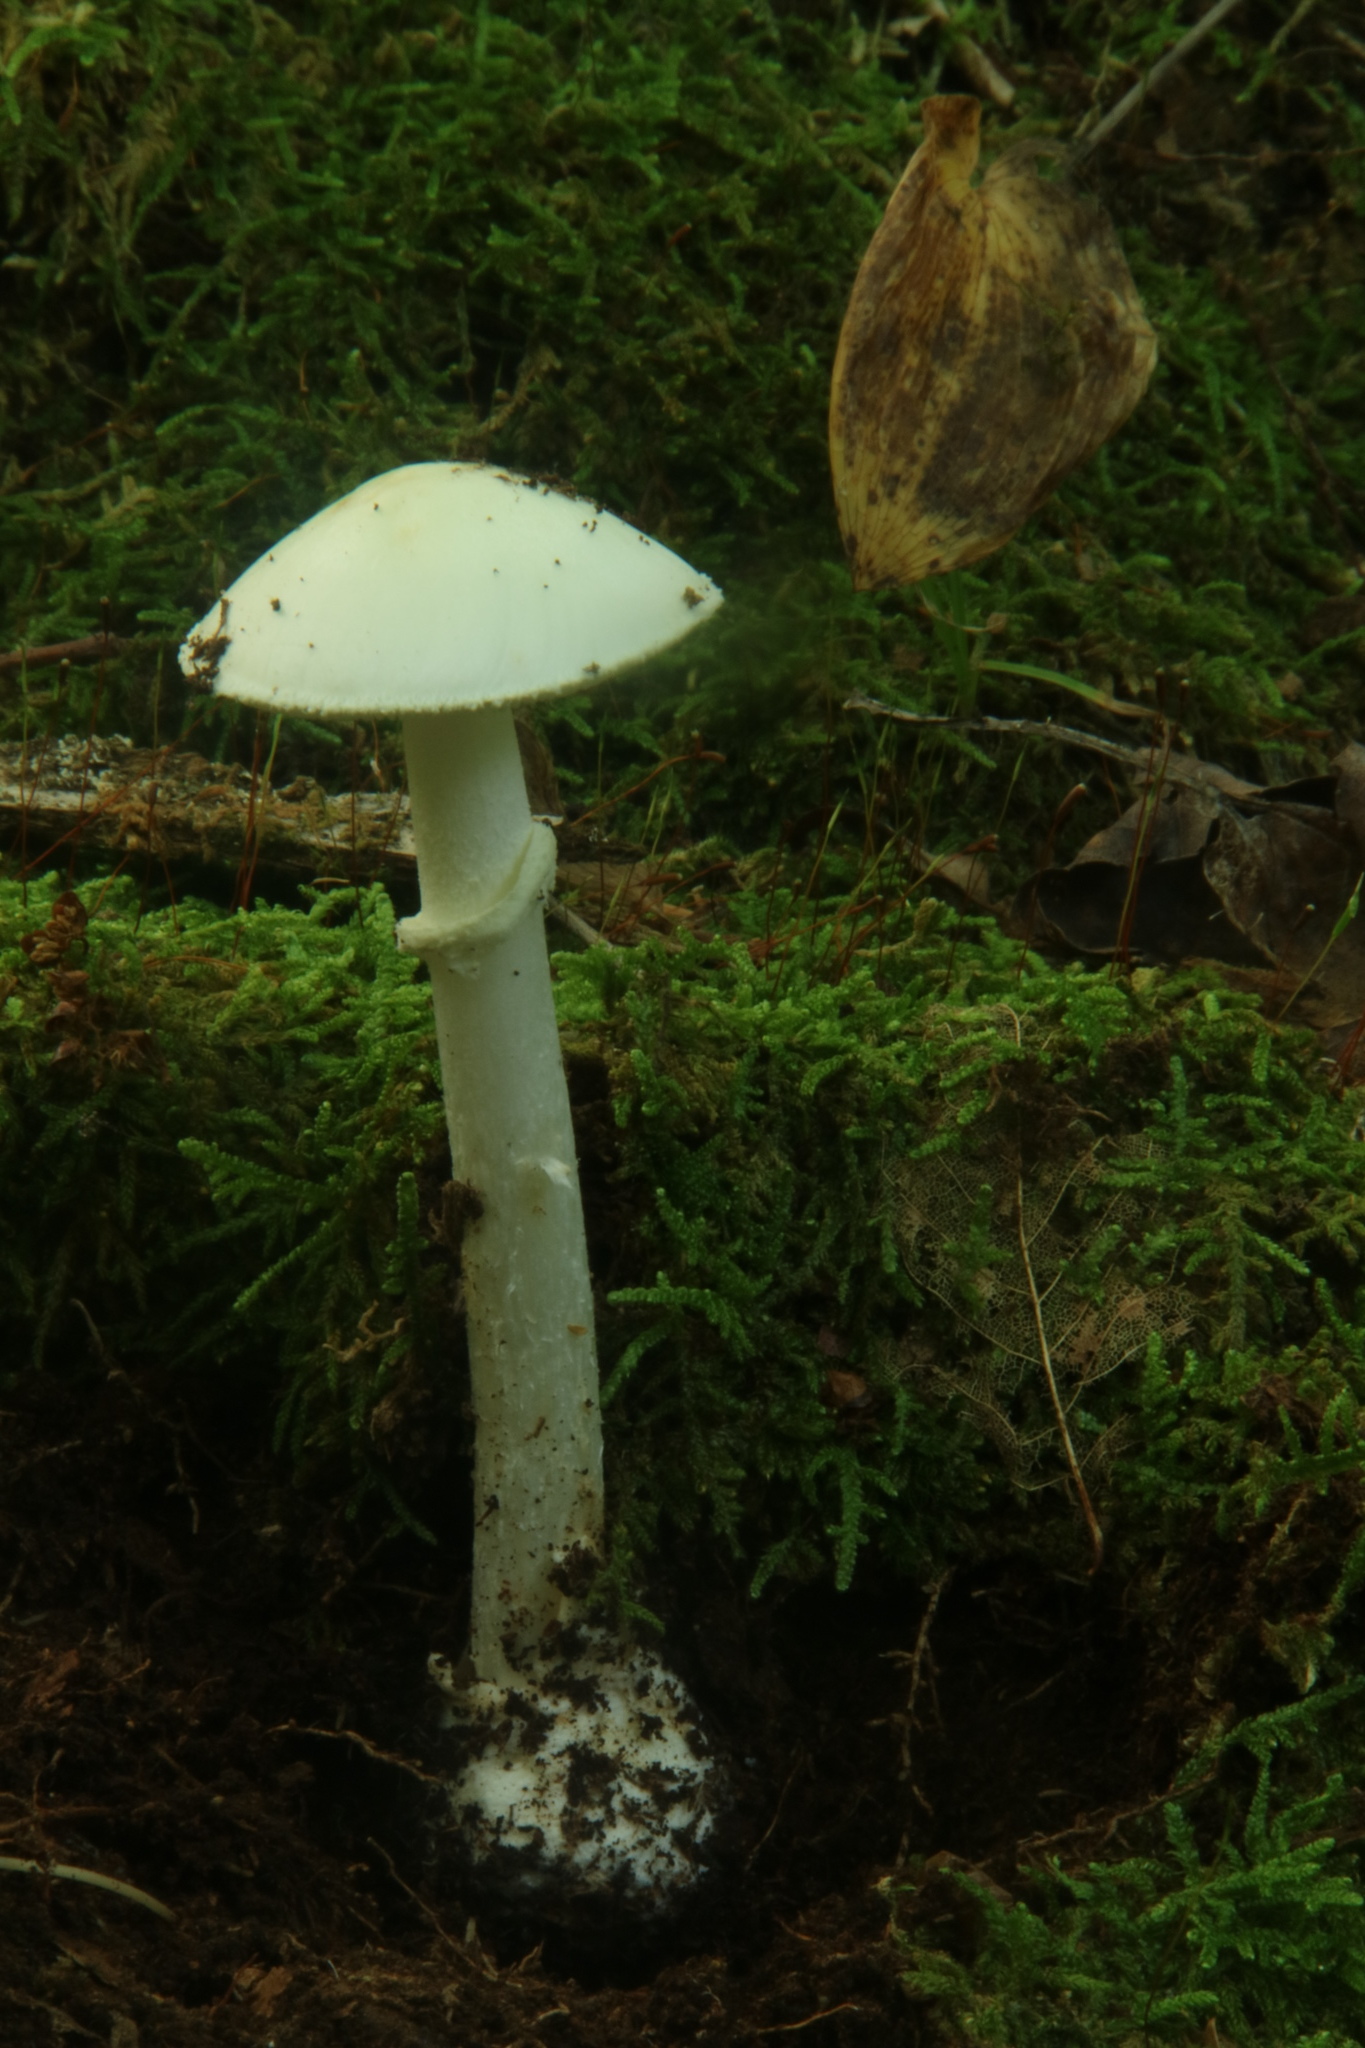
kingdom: Fungi
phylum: Basidiomycota
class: Agaricomycetes
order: Agaricales
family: Amanitaceae
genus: Amanita
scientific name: Amanita citrina
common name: False death-cap
